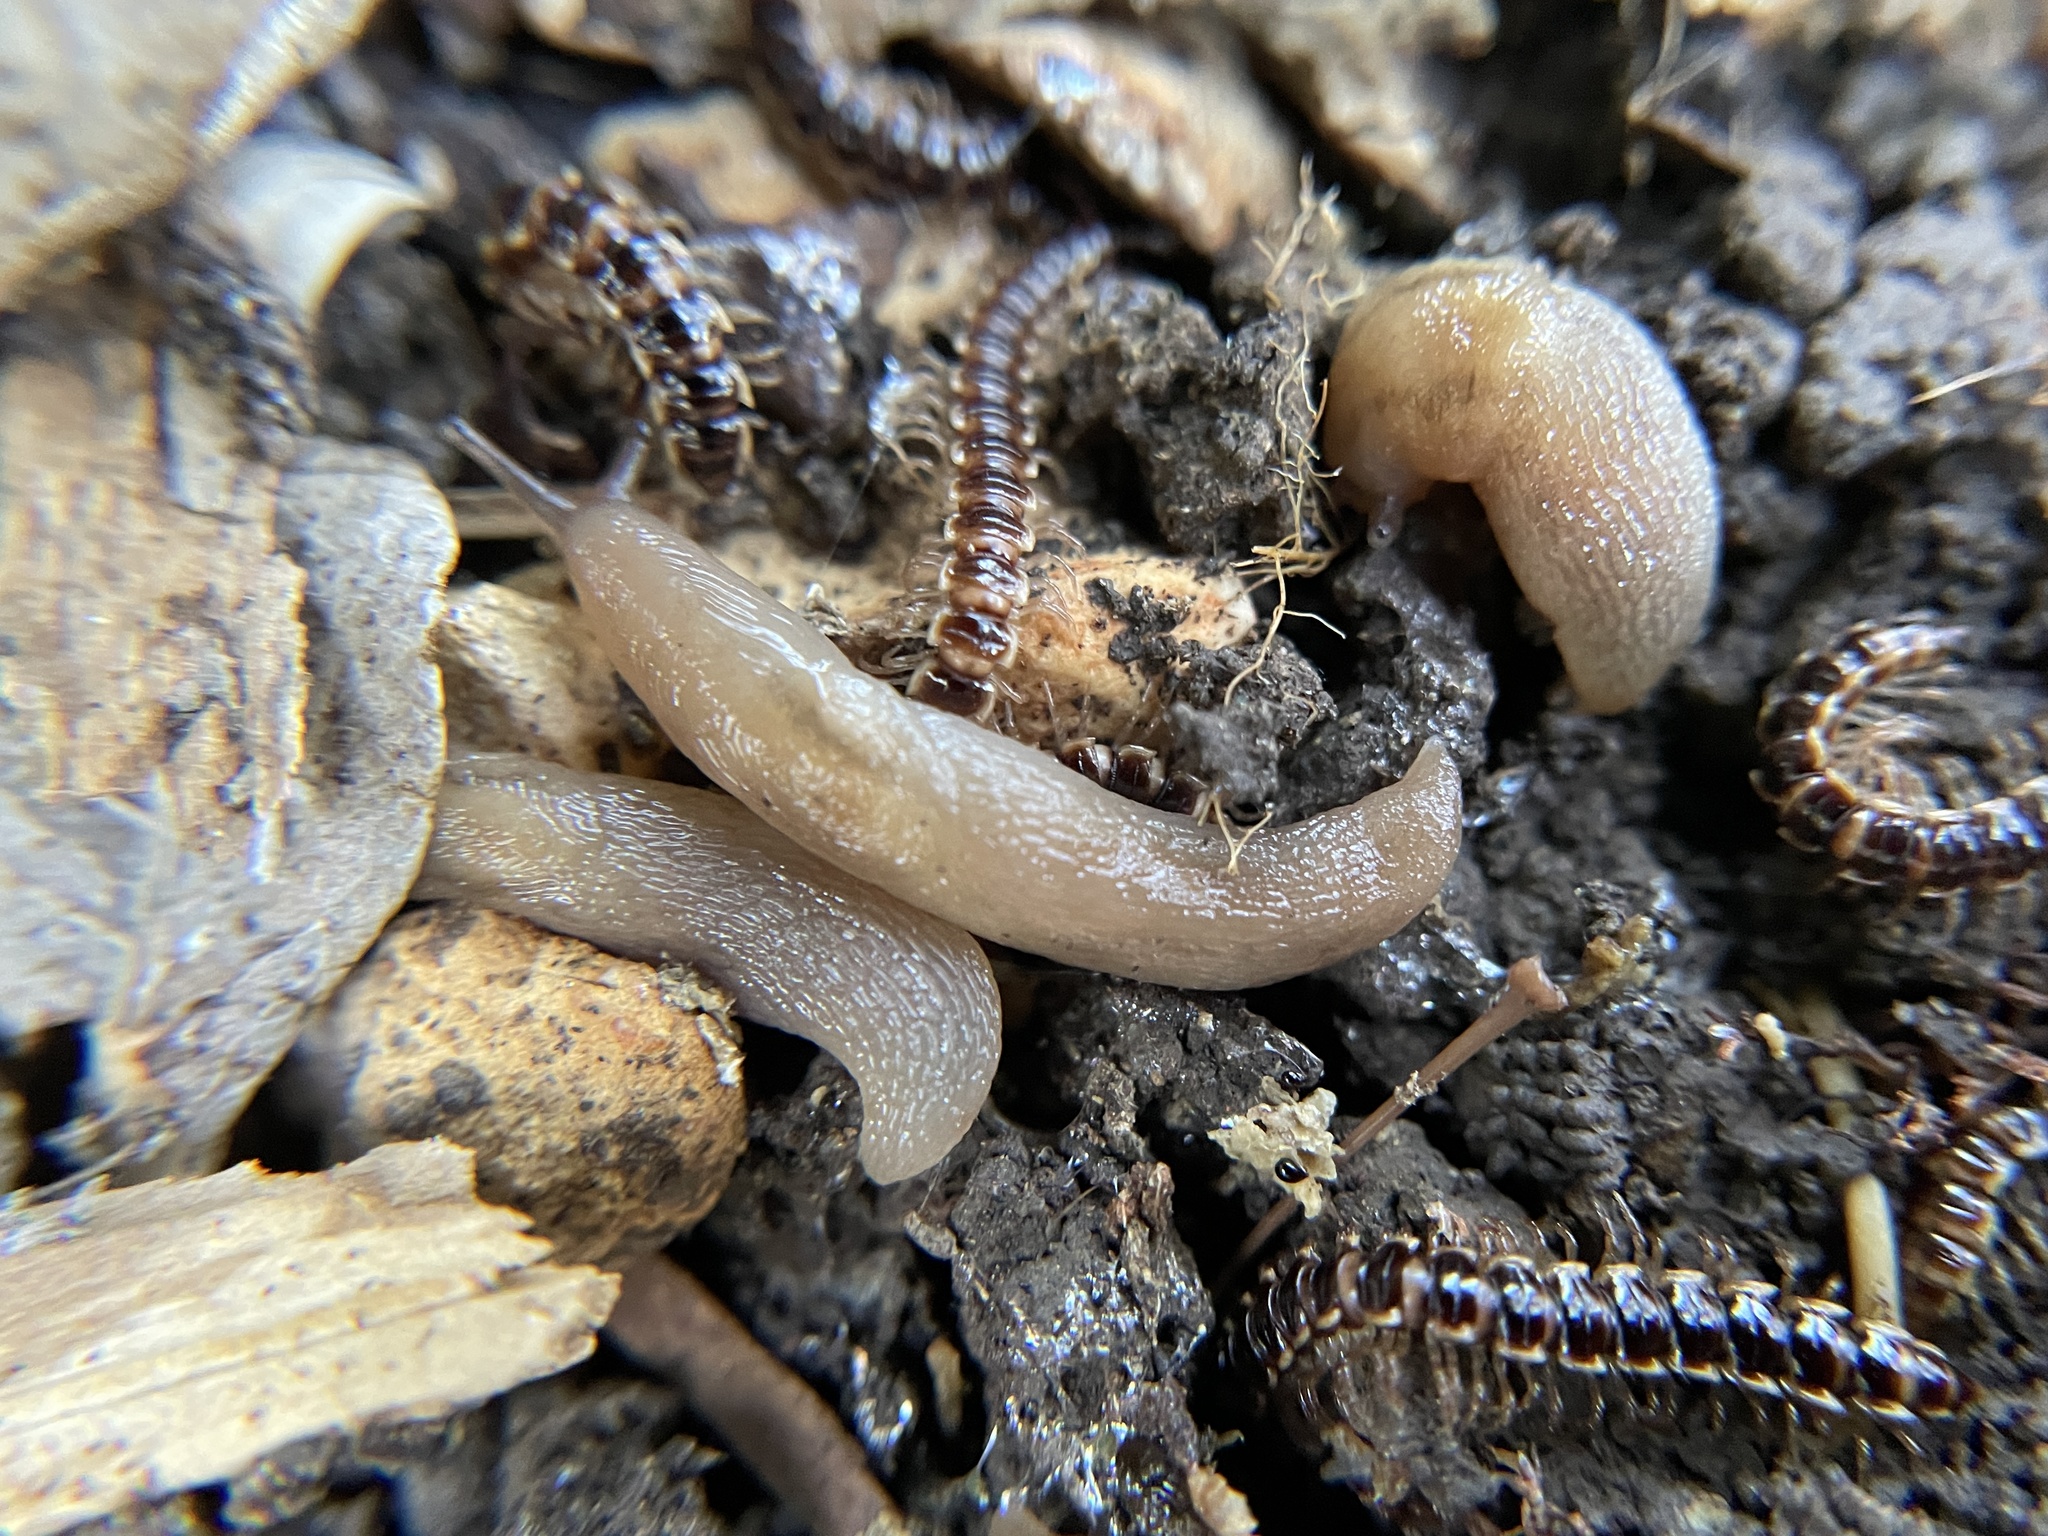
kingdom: Animalia
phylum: Mollusca
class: Gastropoda
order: Stylommatophora
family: Limacidae
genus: Ambigolimax
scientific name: Ambigolimax
